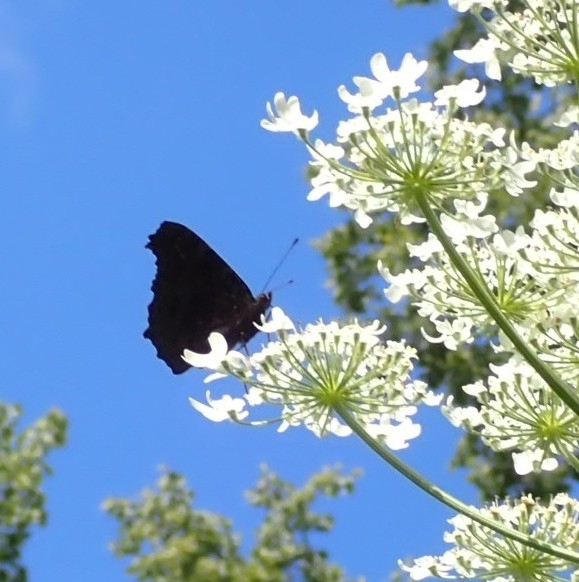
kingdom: Animalia
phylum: Arthropoda
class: Insecta
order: Lepidoptera
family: Nymphalidae
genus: Aglais
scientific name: Aglais io
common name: Peacock
